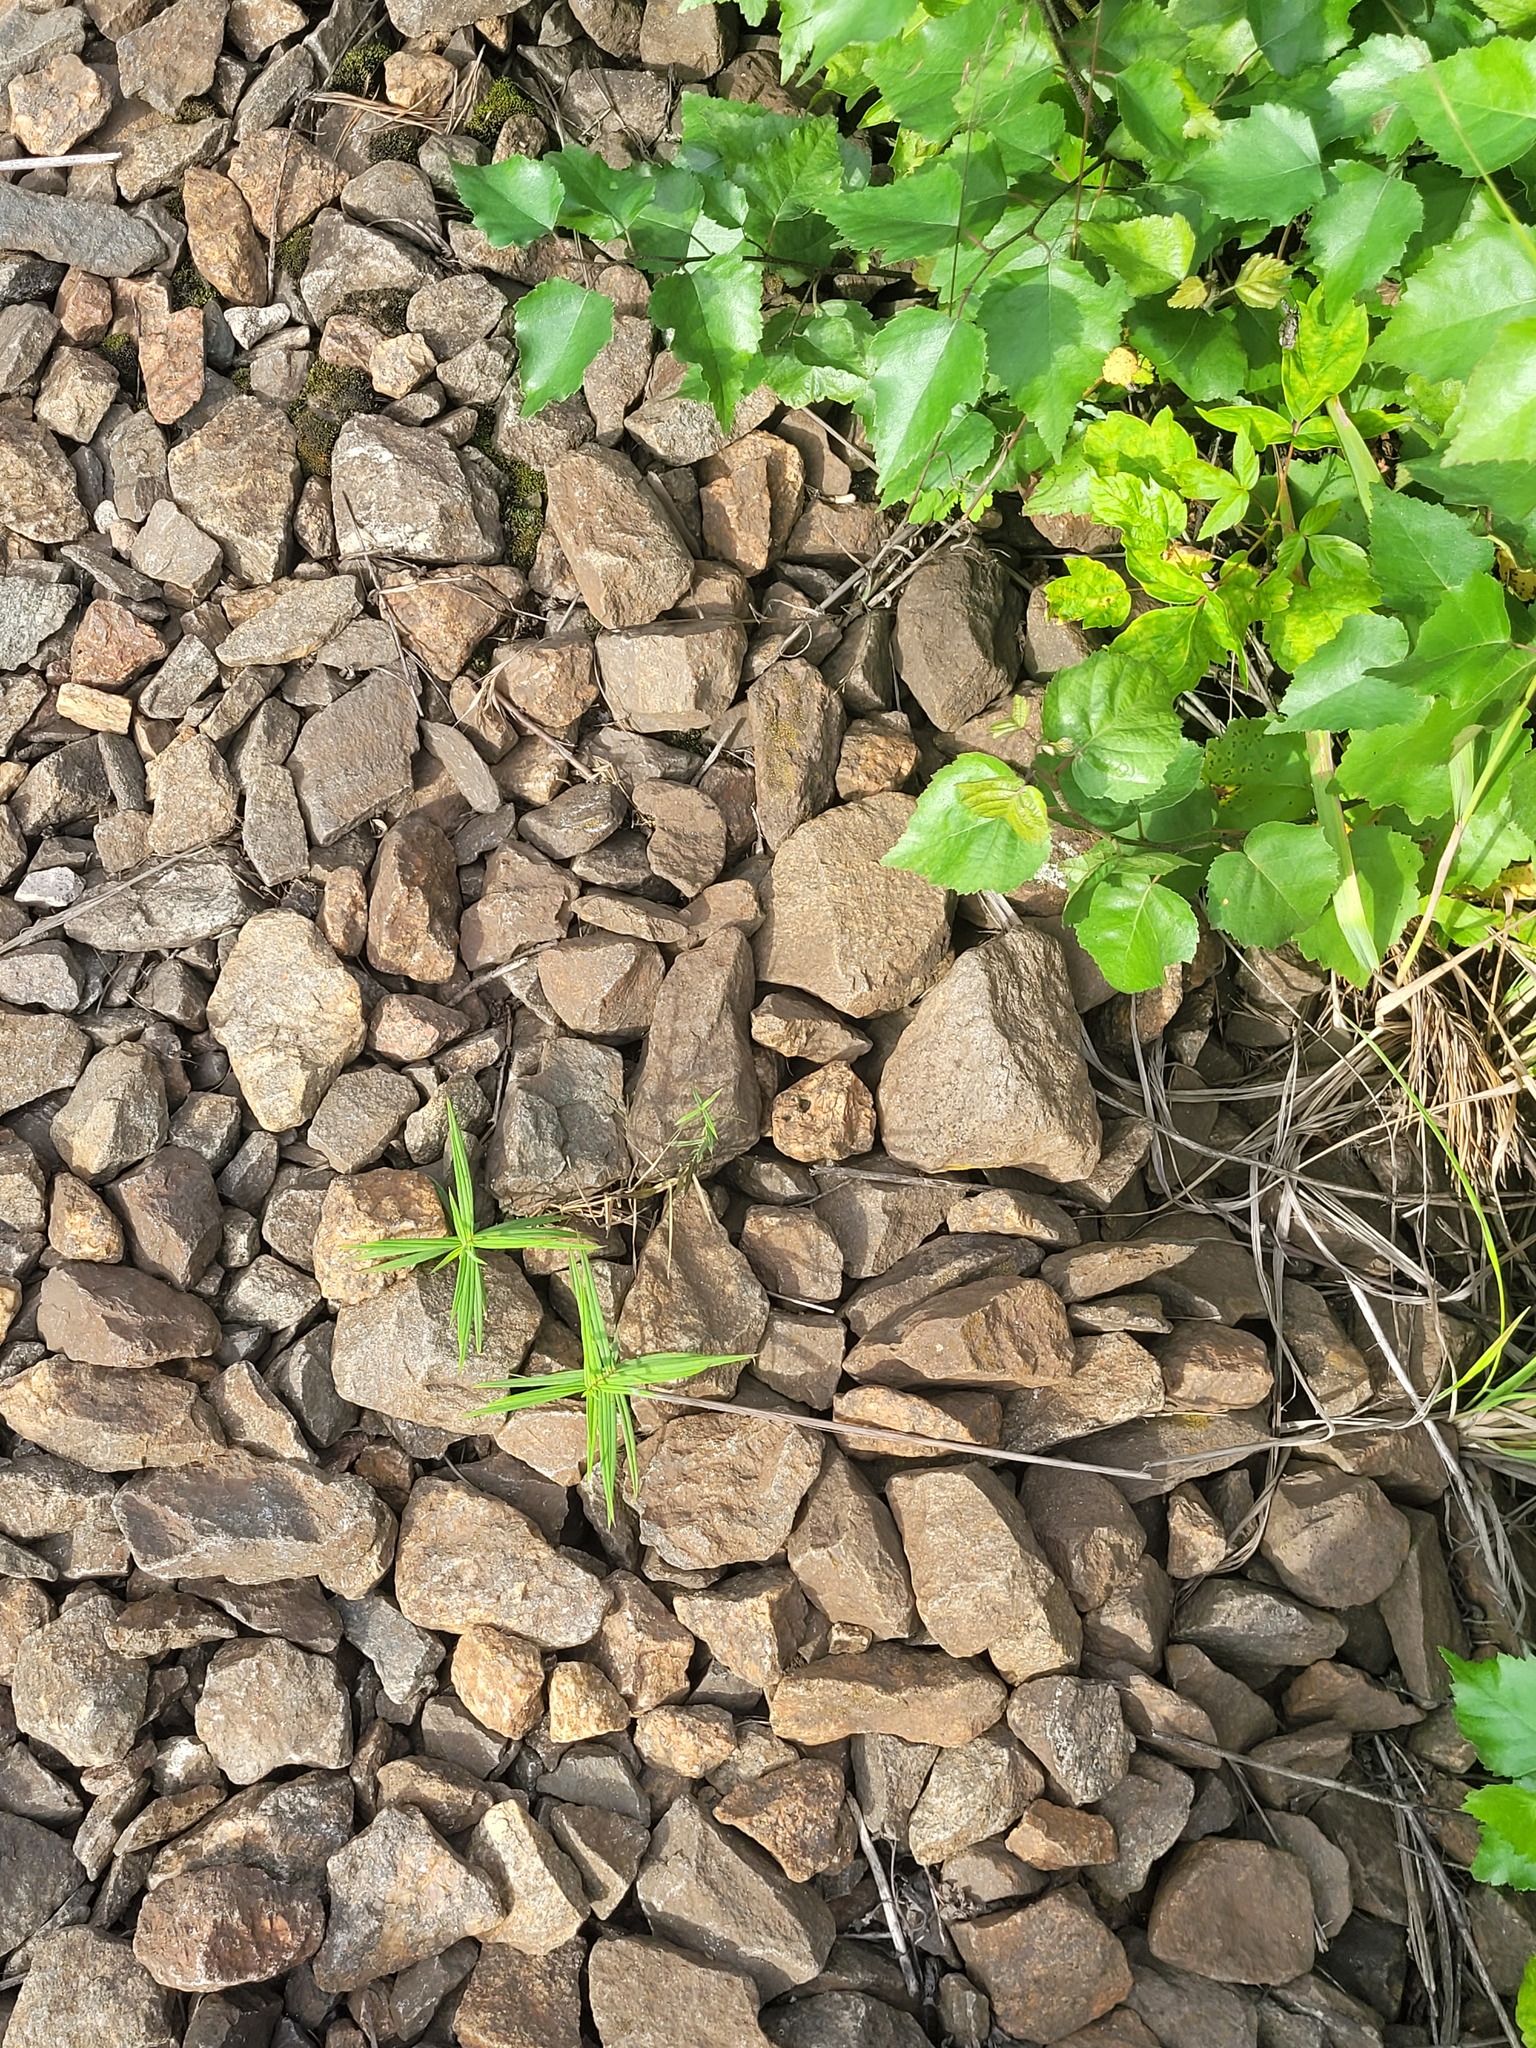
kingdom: Plantae
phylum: Tracheophyta
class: Magnoliopsida
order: Caryophyllales
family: Caryophyllaceae
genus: Rabelera
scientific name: Rabelera holostea
